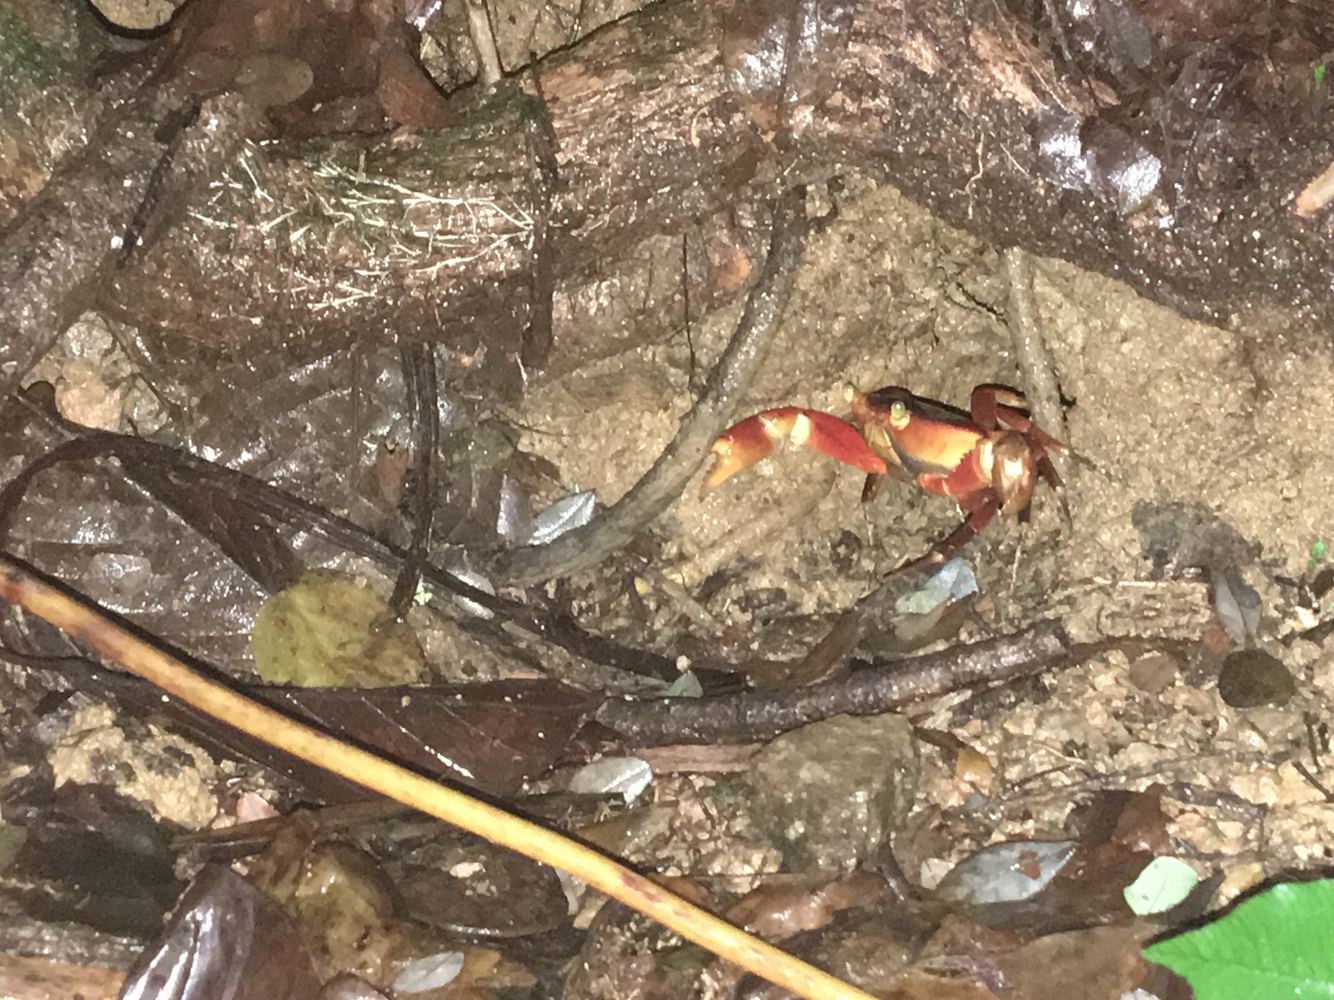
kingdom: Animalia
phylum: Arthropoda
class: Malacostraca
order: Decapoda
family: Pseudothelphusidae
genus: Rodriguezus
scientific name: Rodriguezus garmani
